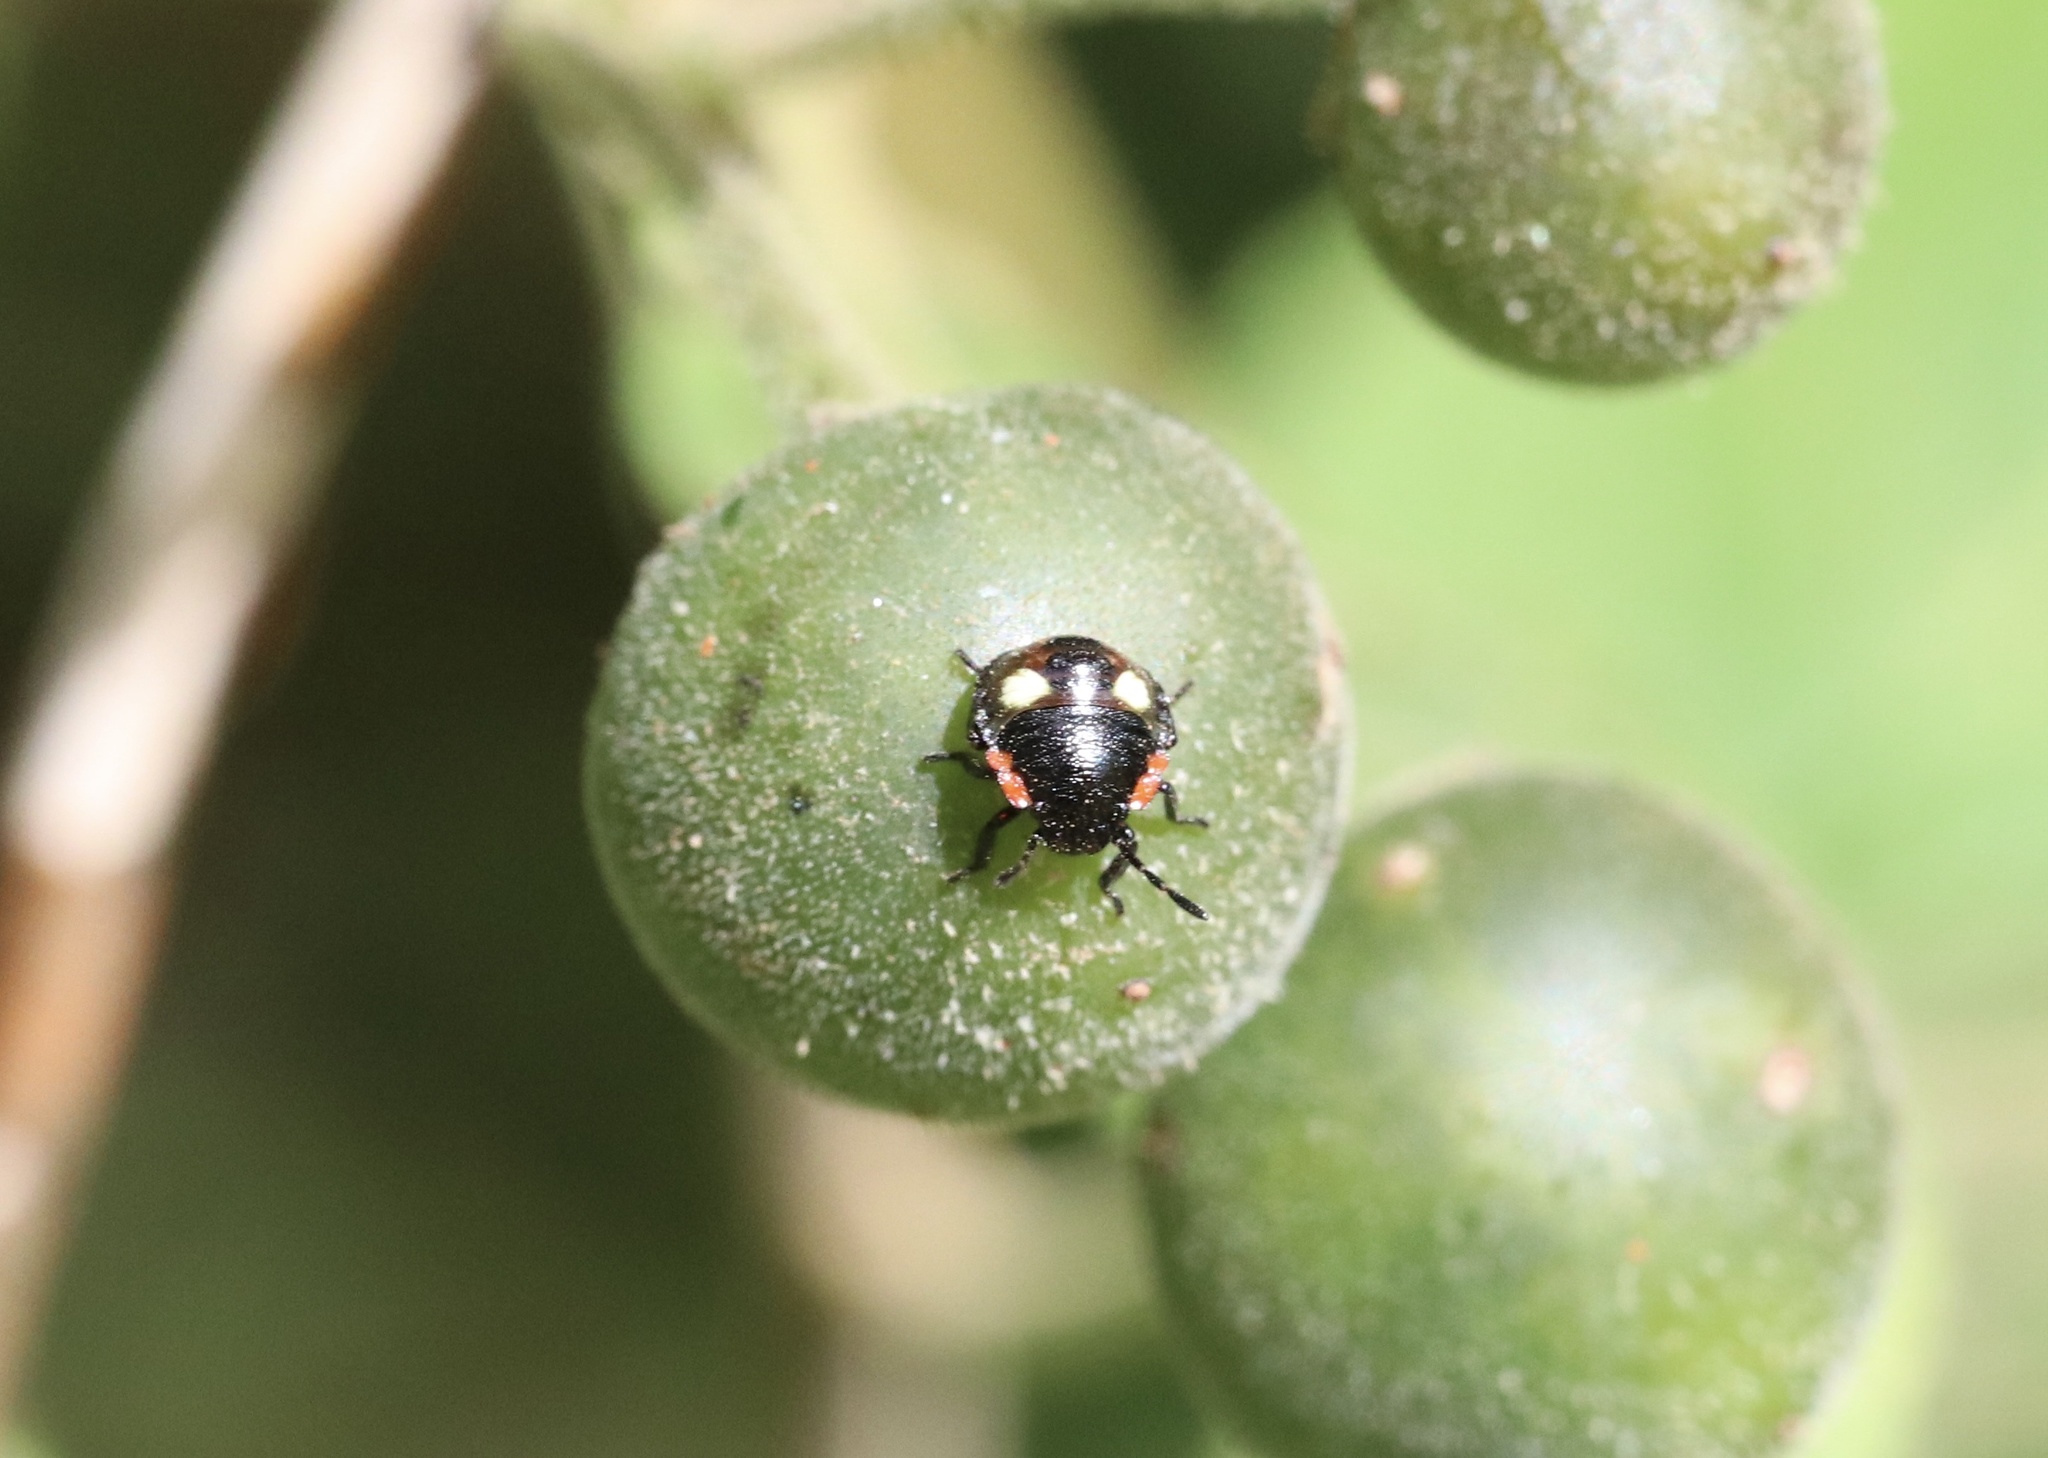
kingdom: Animalia
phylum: Arthropoda
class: Insecta
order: Hemiptera
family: Pentatomidae
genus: Chinavia
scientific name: Chinavia perezi
